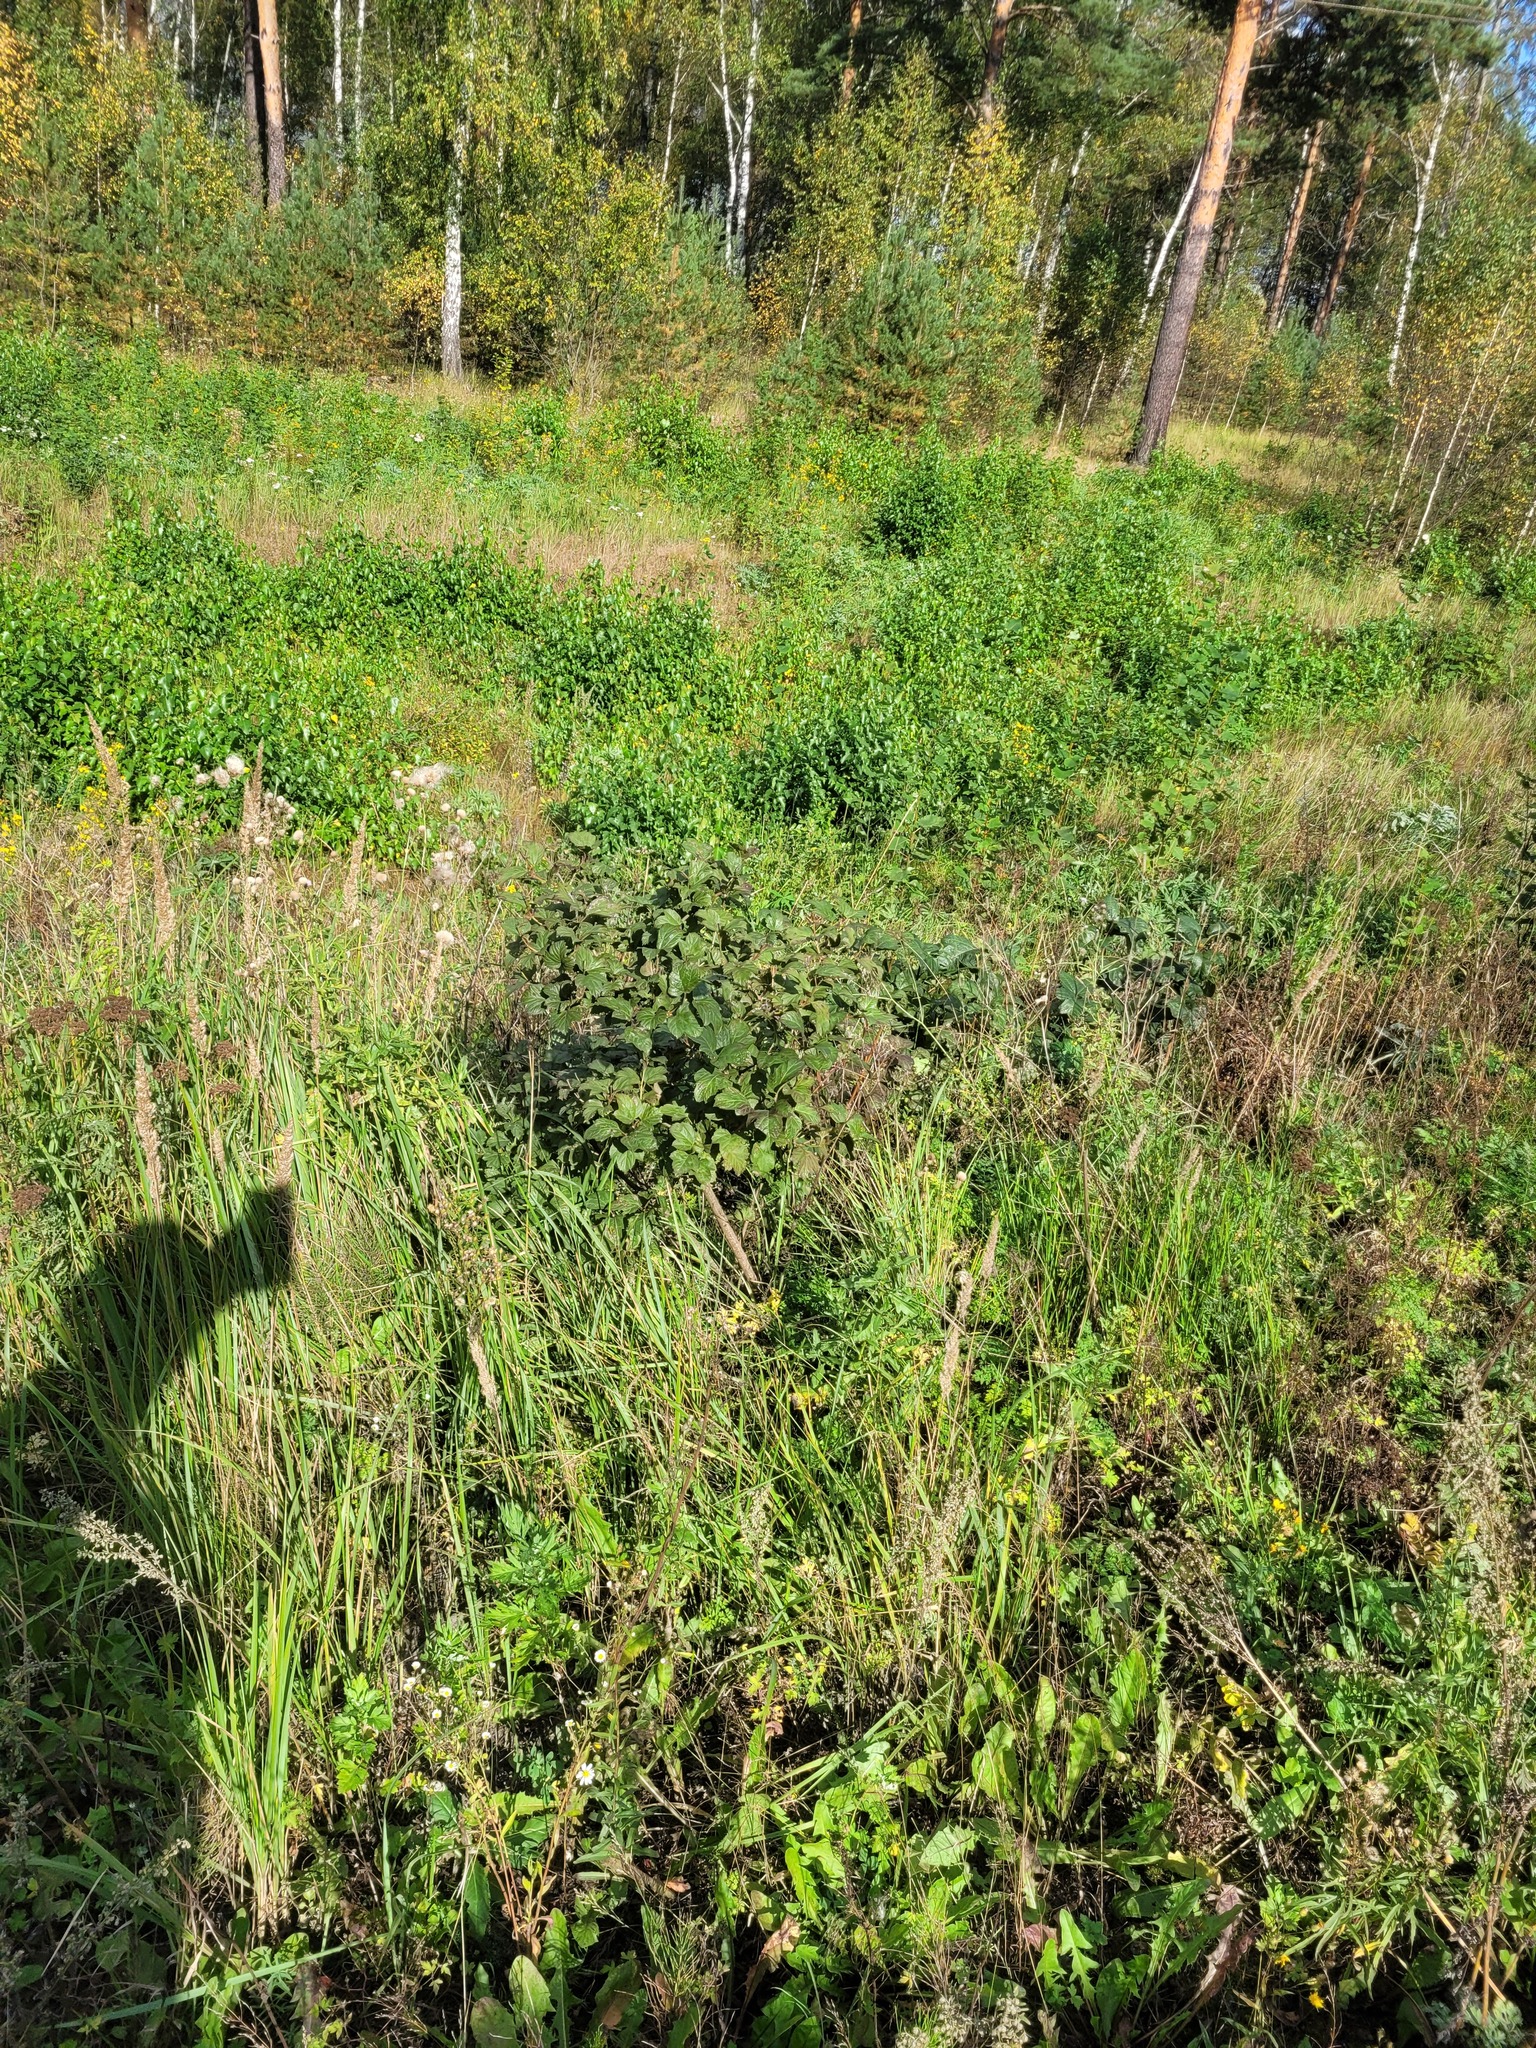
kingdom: Plantae
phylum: Tracheophyta
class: Magnoliopsida
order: Dipsacales
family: Viburnaceae
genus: Viburnum
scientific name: Viburnum opulus
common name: Guelder-rose
